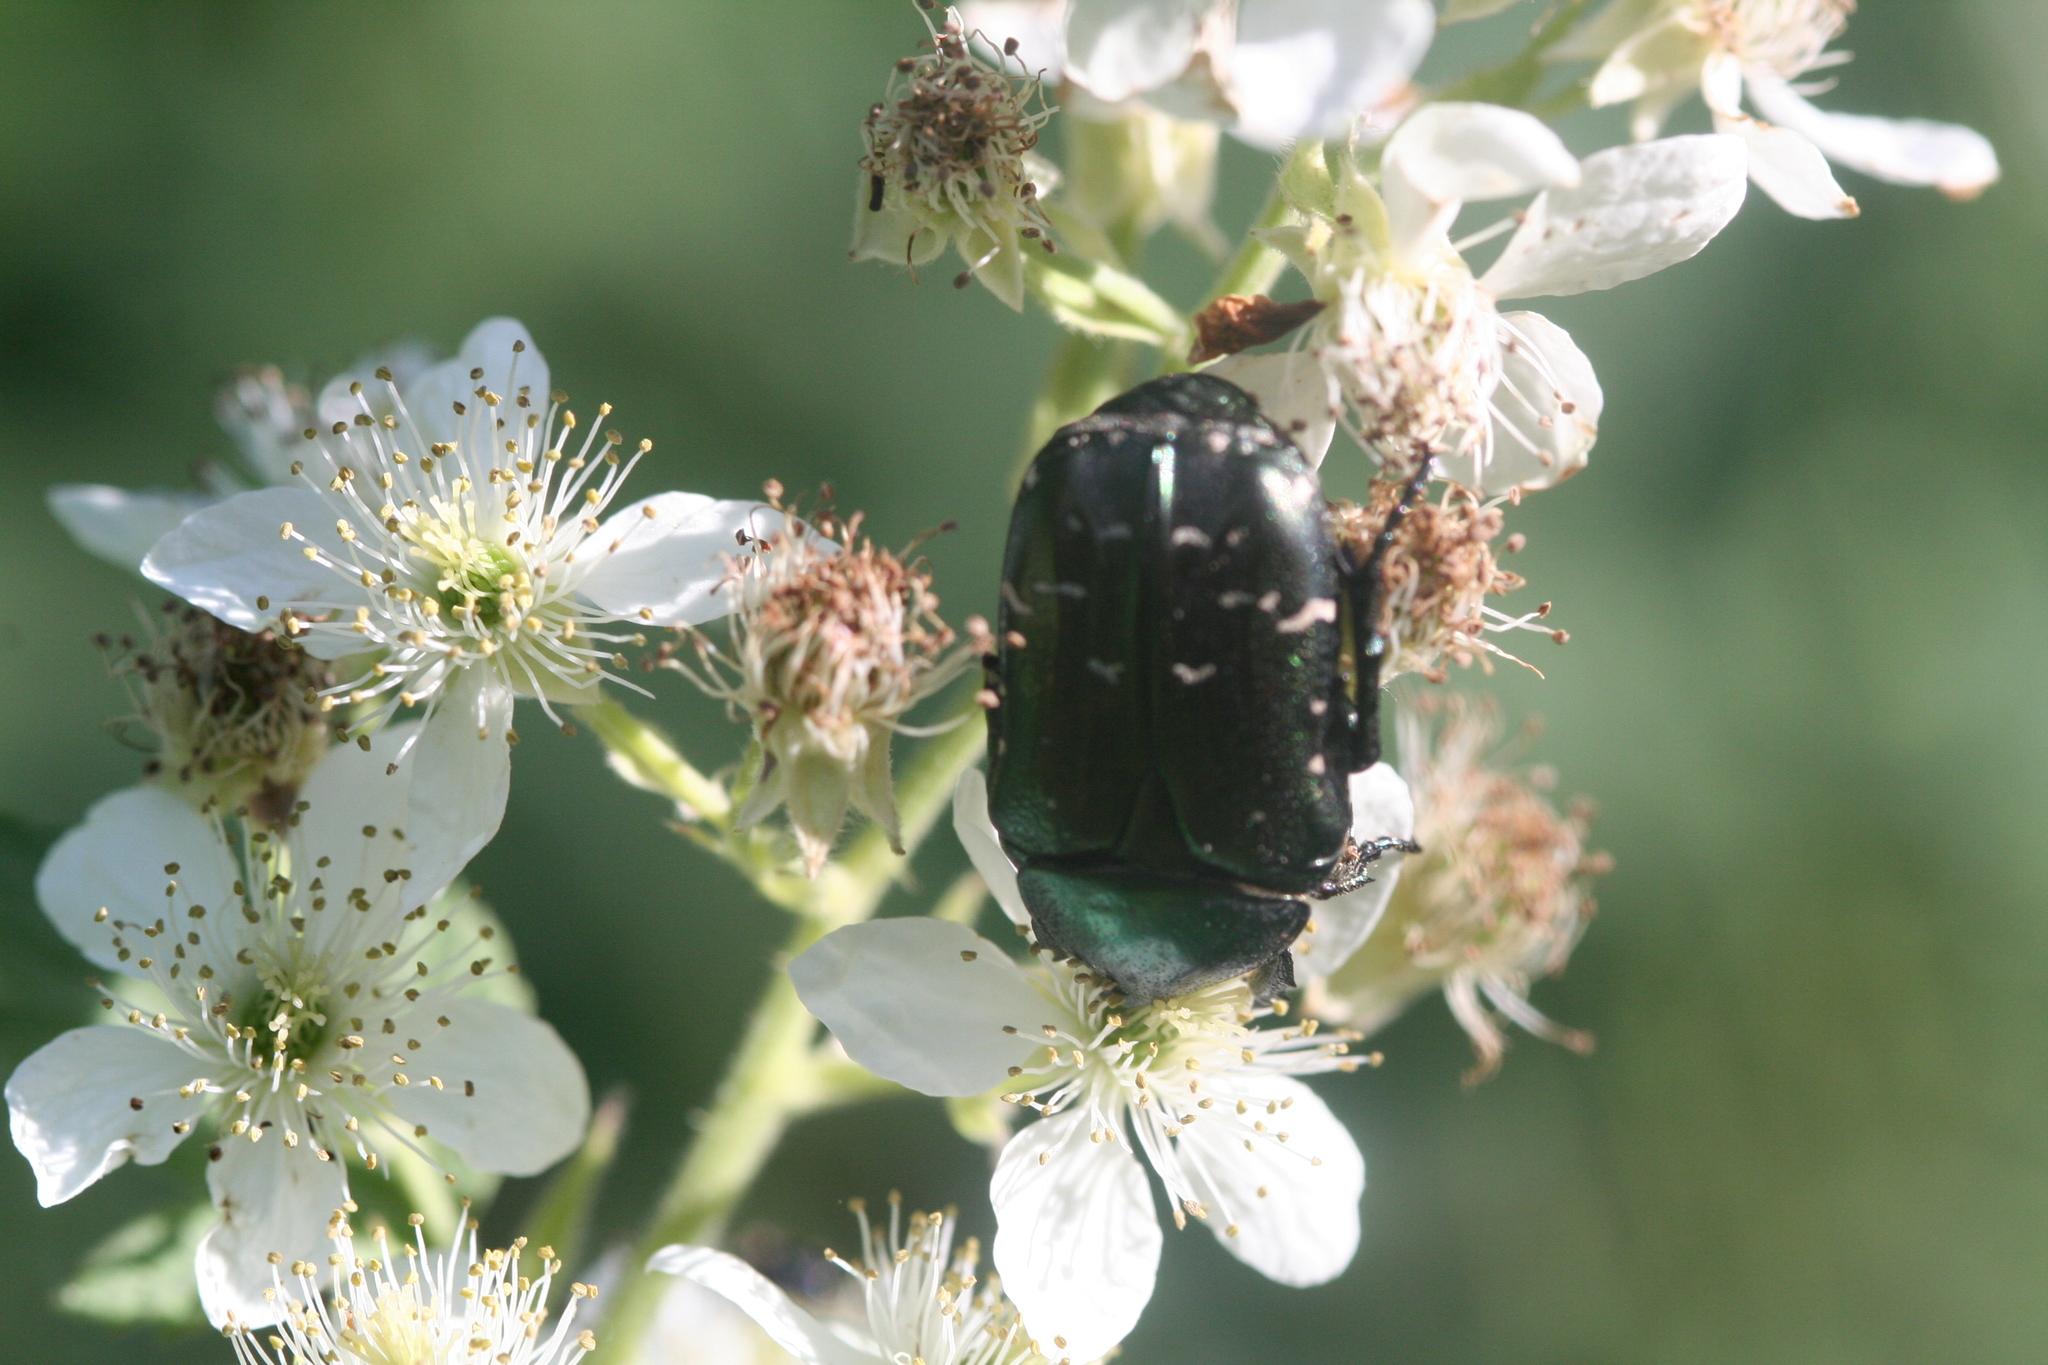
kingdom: Animalia
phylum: Arthropoda
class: Insecta
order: Coleoptera
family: Scarabaeidae
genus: Cetonia
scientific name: Cetonia aurata
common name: Rose chafer
